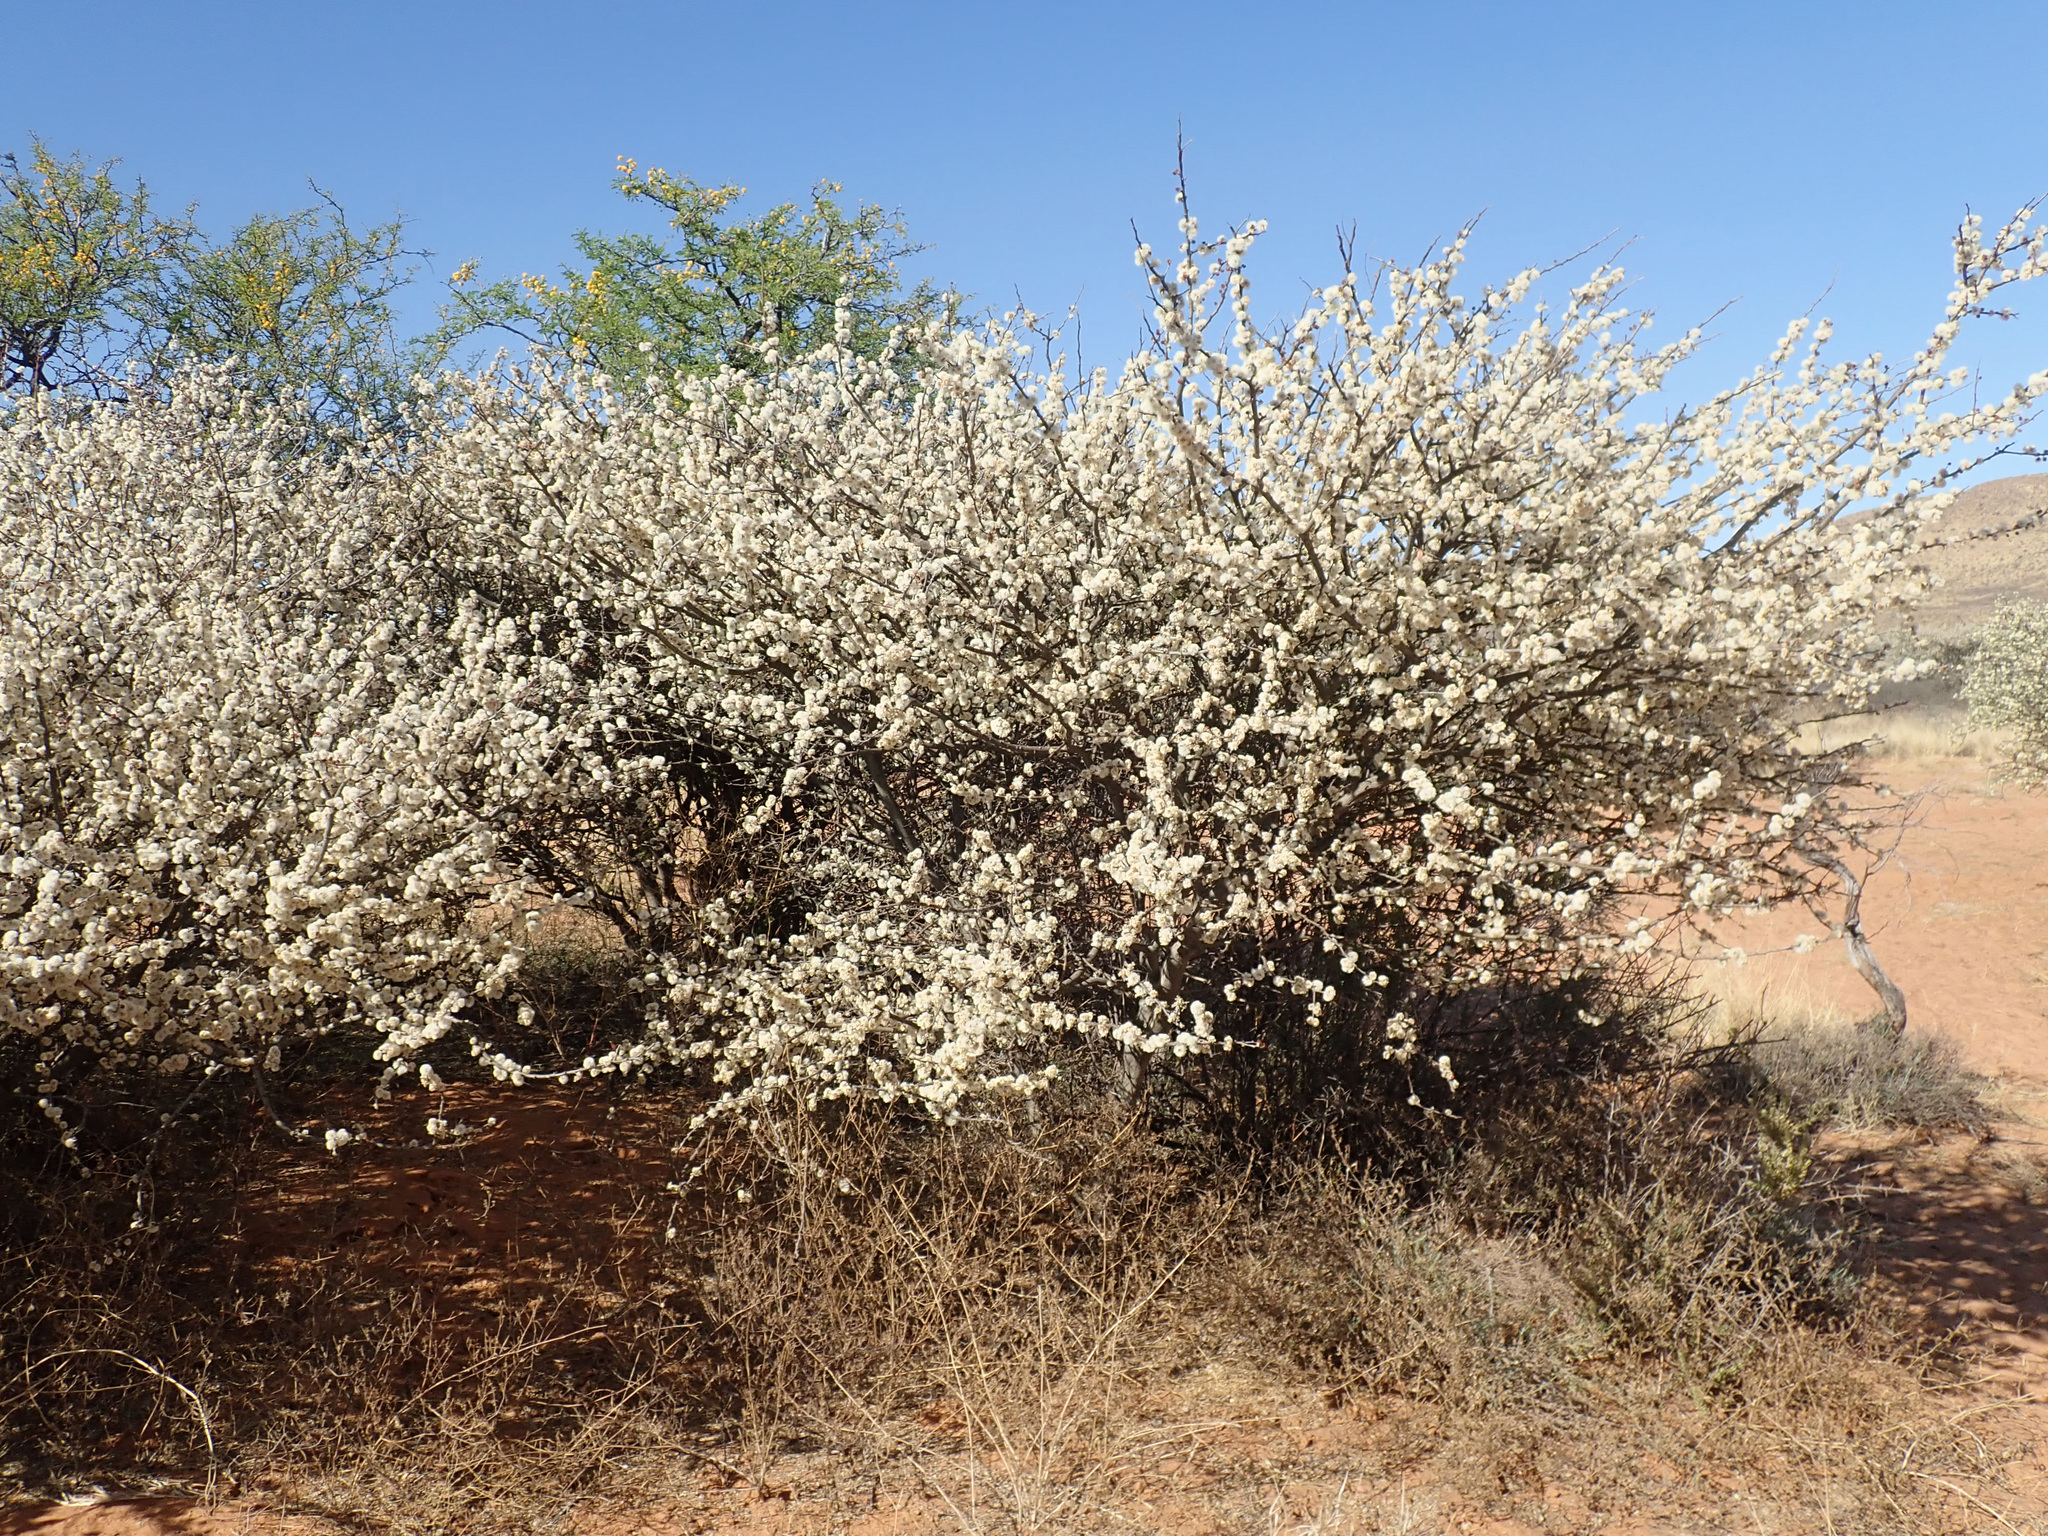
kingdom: Plantae
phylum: Tracheophyta
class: Magnoliopsida
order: Fabales
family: Fabaceae
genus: Senegalia
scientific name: Senegalia mellifera
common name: Hookthorn
